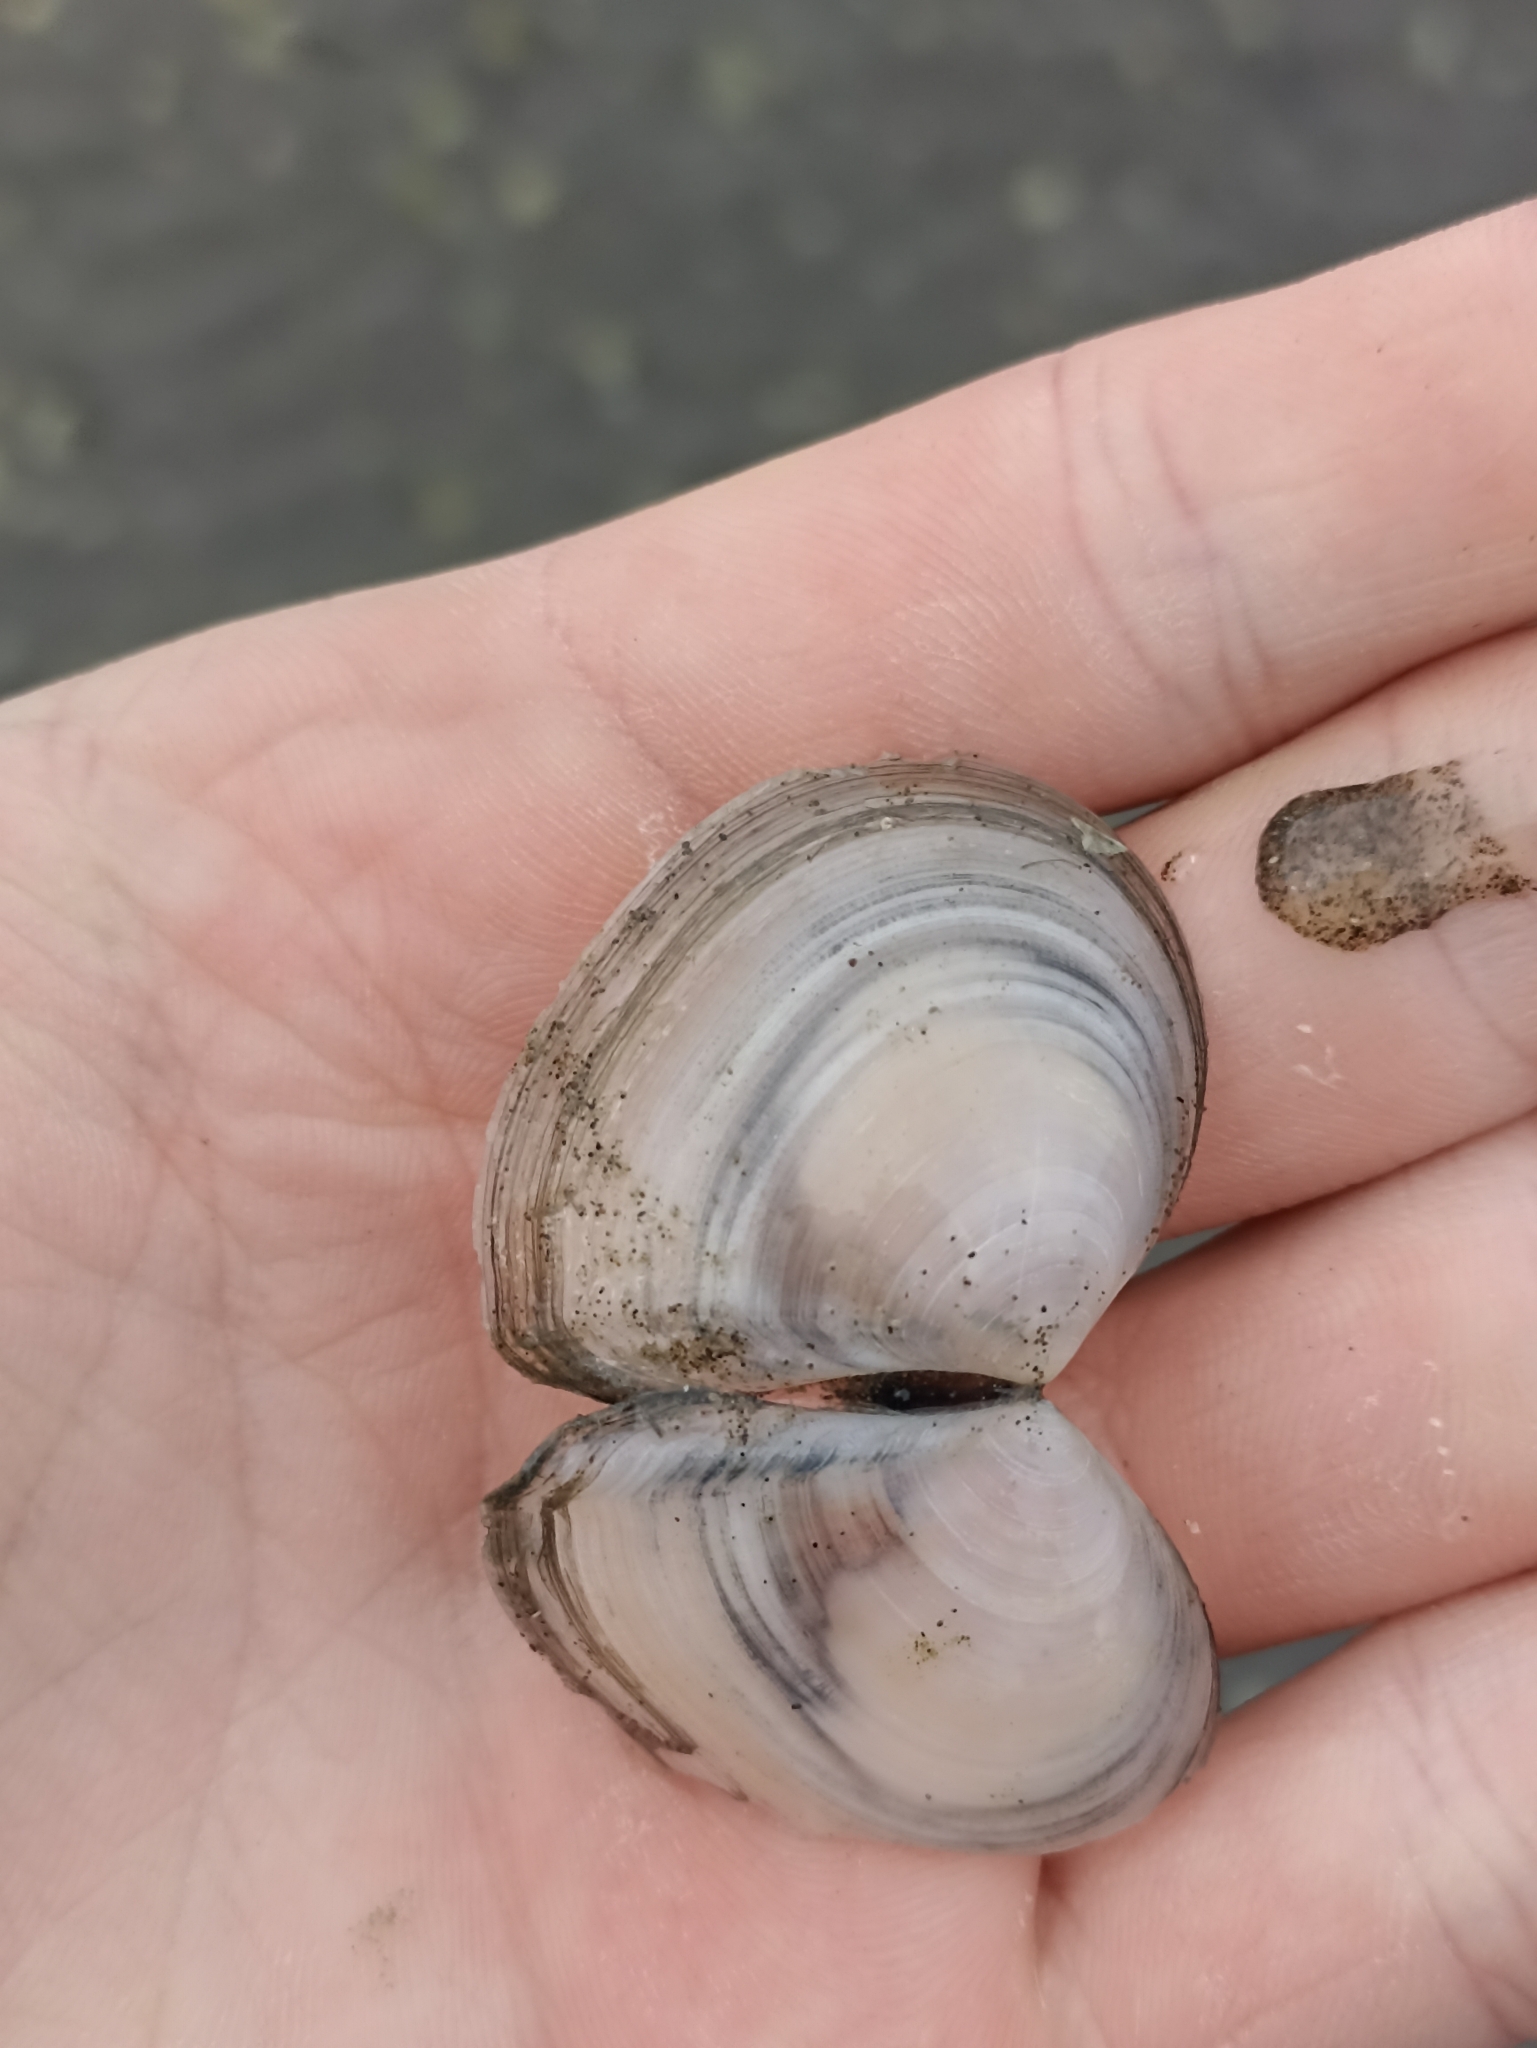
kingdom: Animalia
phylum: Mollusca
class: Bivalvia
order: Cardiida
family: Tellinidae
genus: Macomona
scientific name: Macomona liliana
